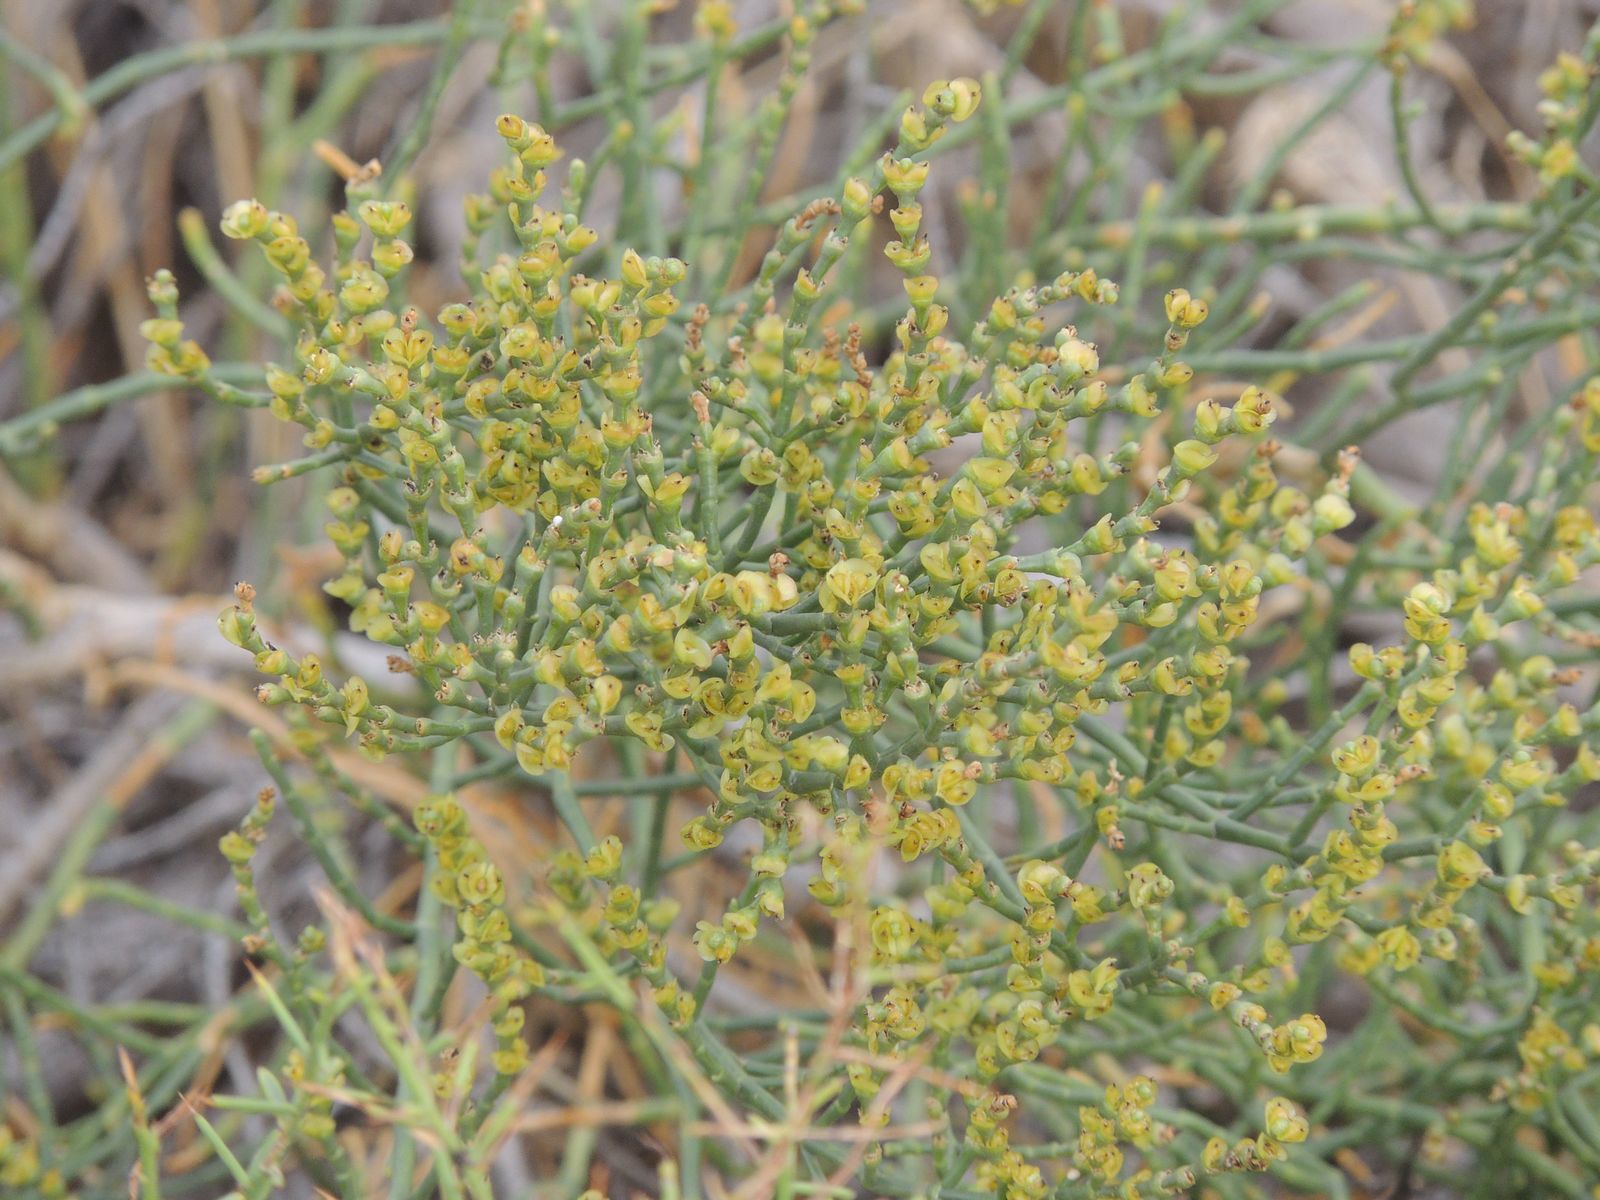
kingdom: Plantae
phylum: Tracheophyta
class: Magnoliopsida
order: Caryophyllales
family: Amaranthaceae
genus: Anabasis
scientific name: Anabasis aphylla
